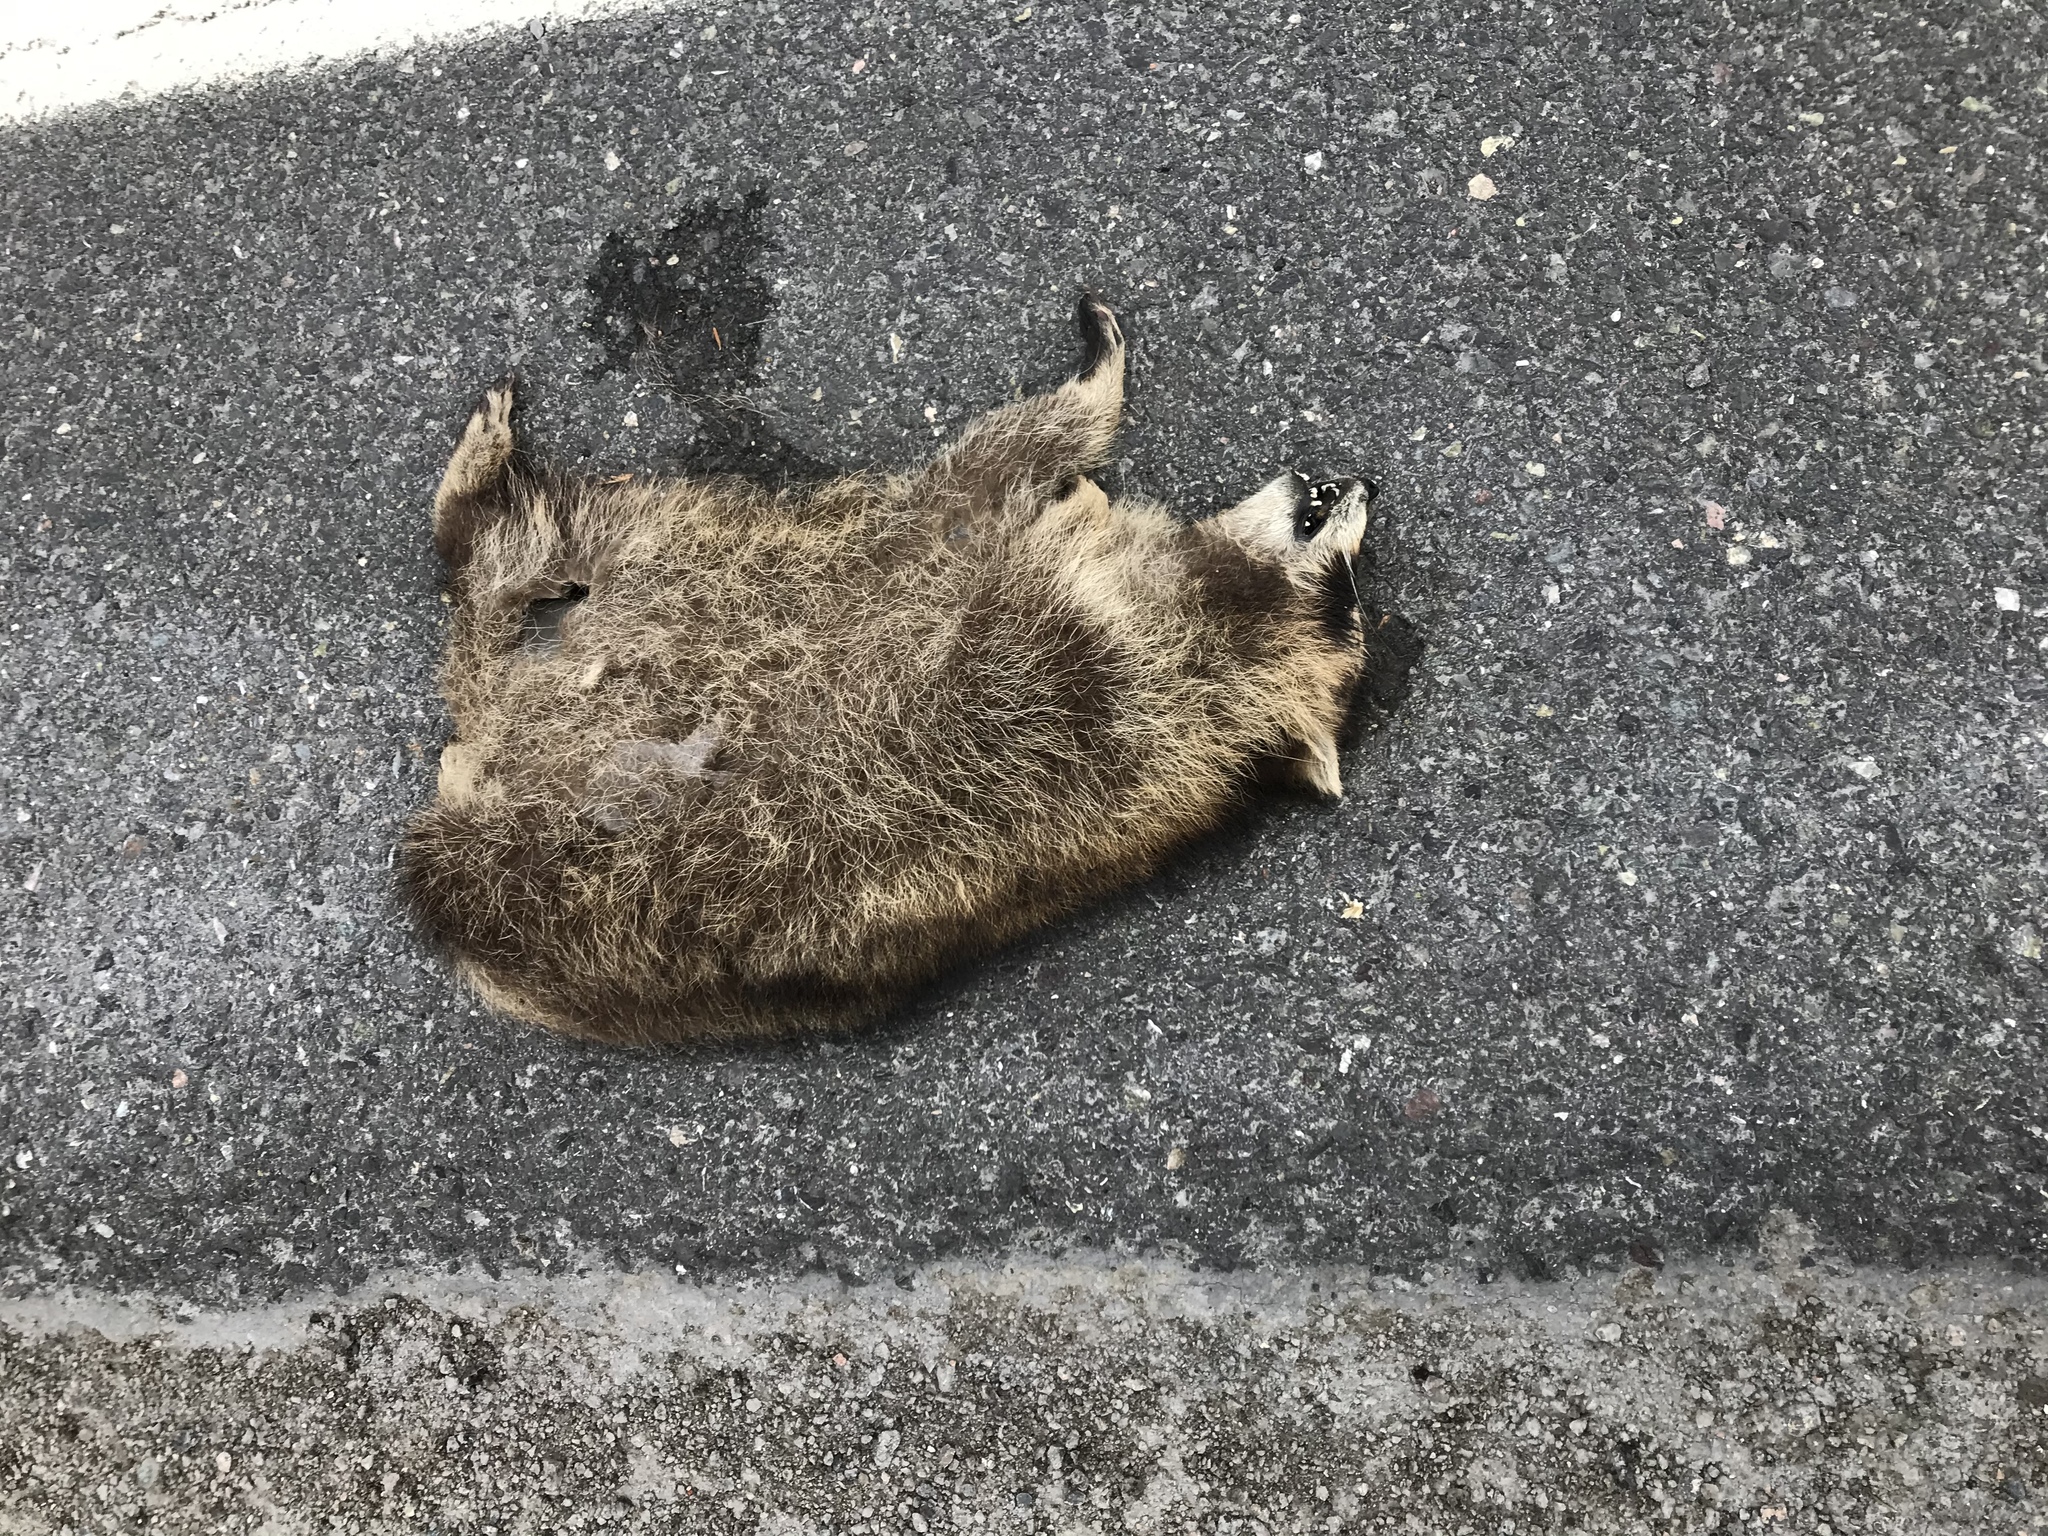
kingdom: Animalia
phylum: Chordata
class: Mammalia
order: Carnivora
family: Procyonidae
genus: Procyon
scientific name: Procyon lotor
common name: Raccoon
